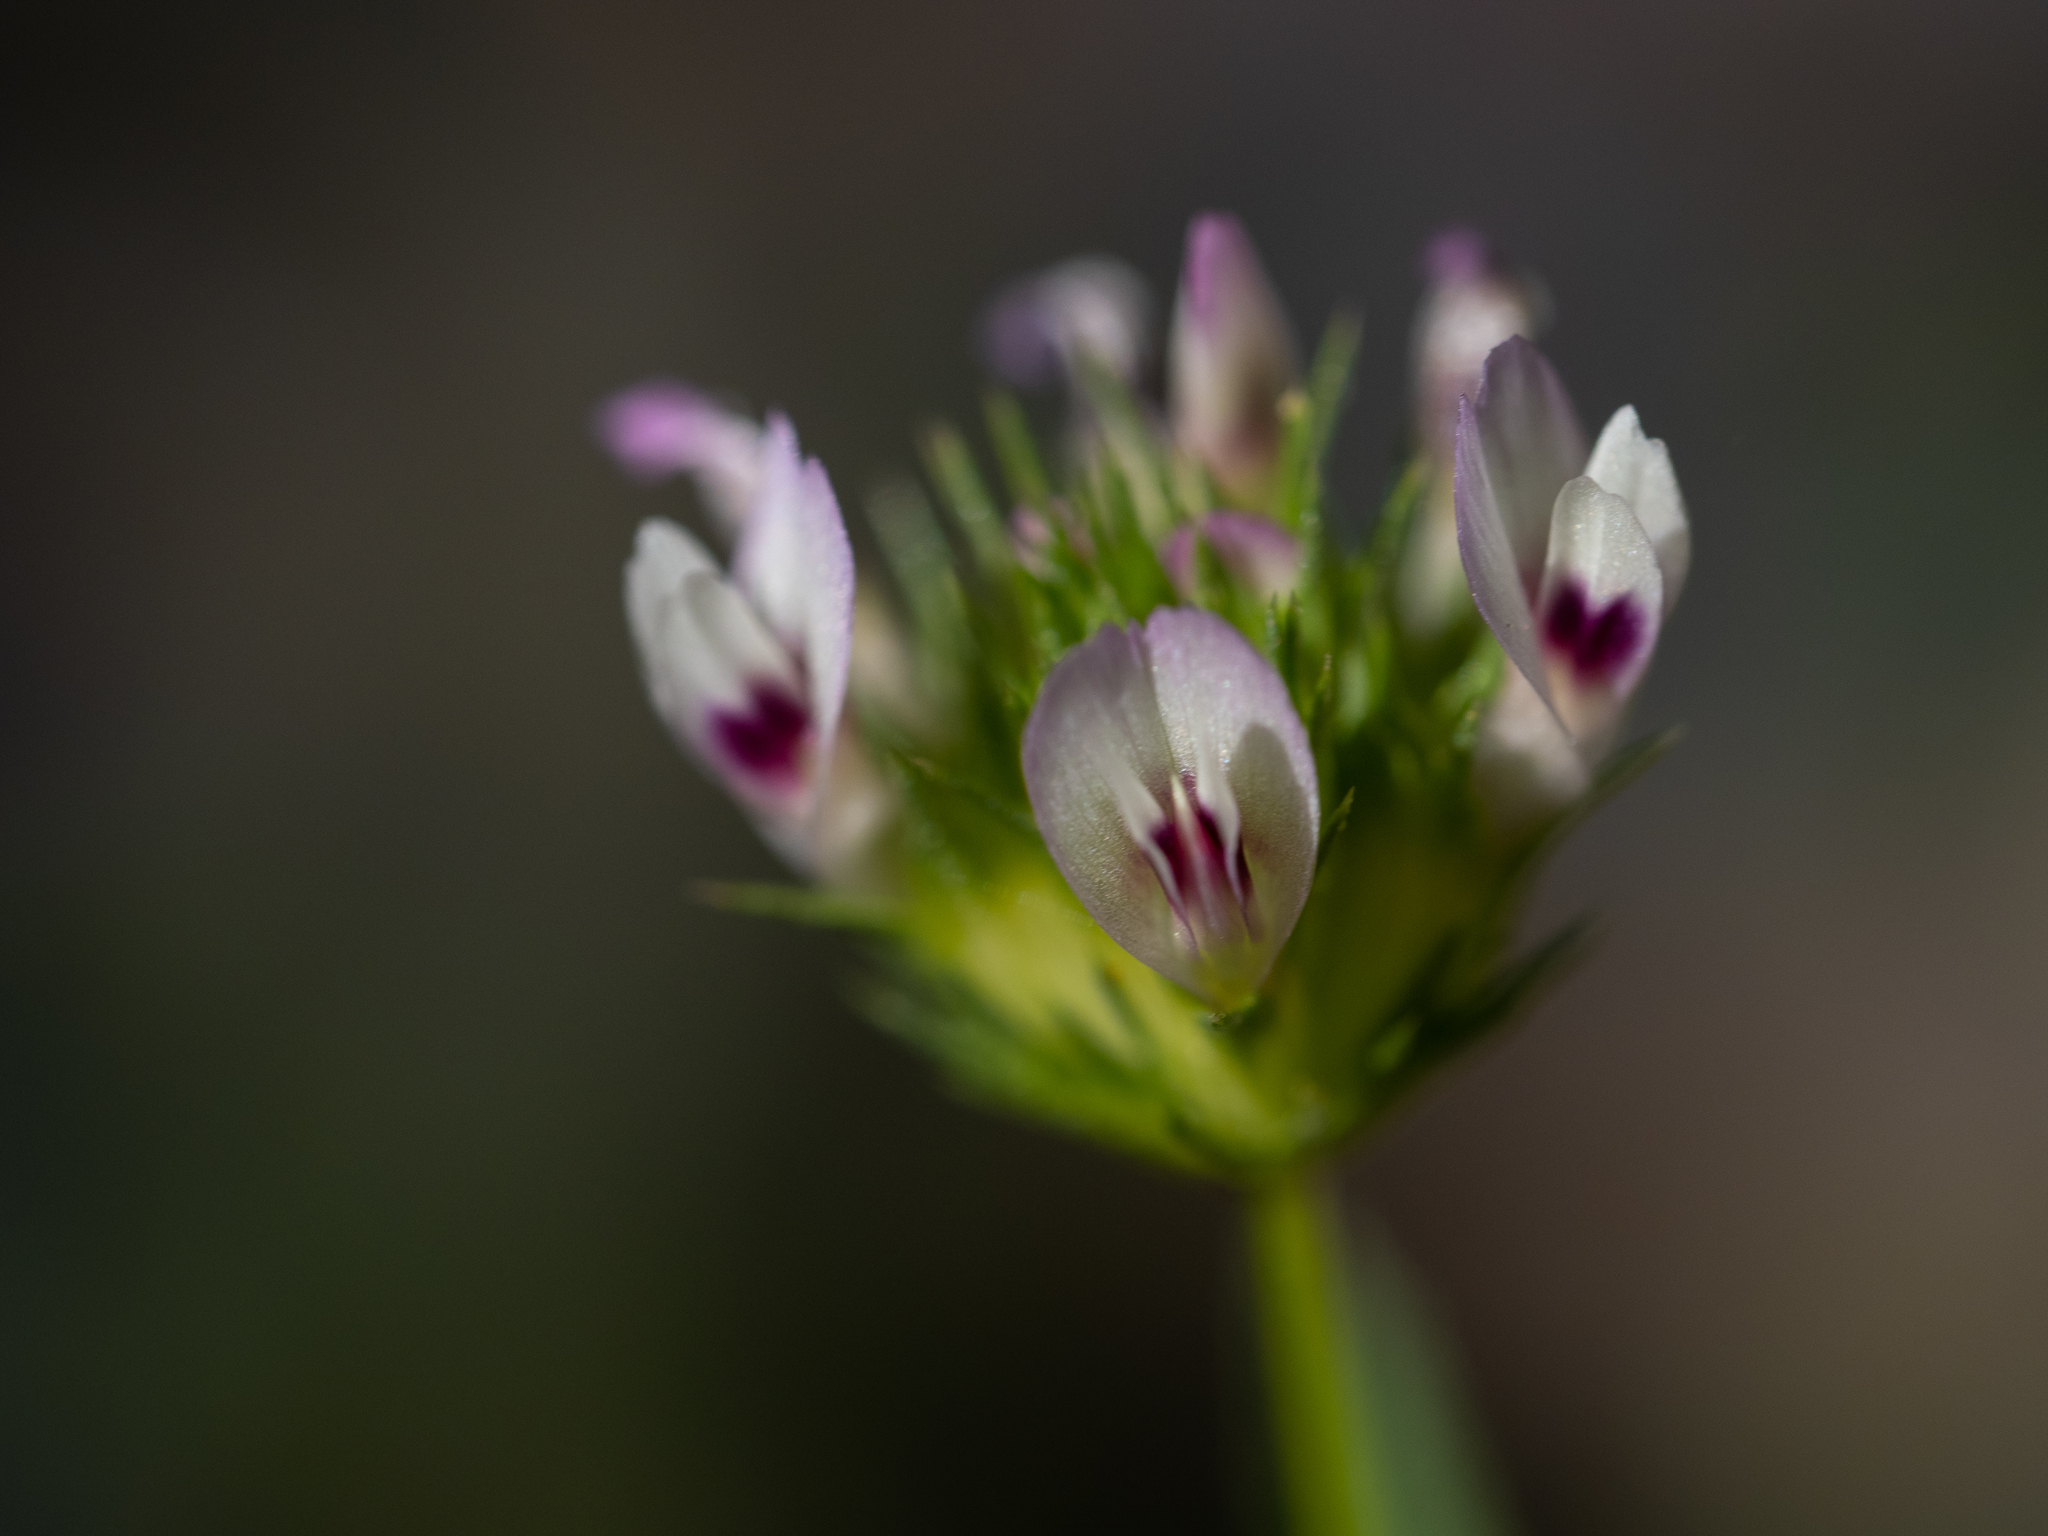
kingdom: Plantae
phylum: Tracheophyta
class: Magnoliopsida
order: Fabales
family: Fabaceae
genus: Trifolium
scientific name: Trifolium willdenovii
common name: Tomcat clover
